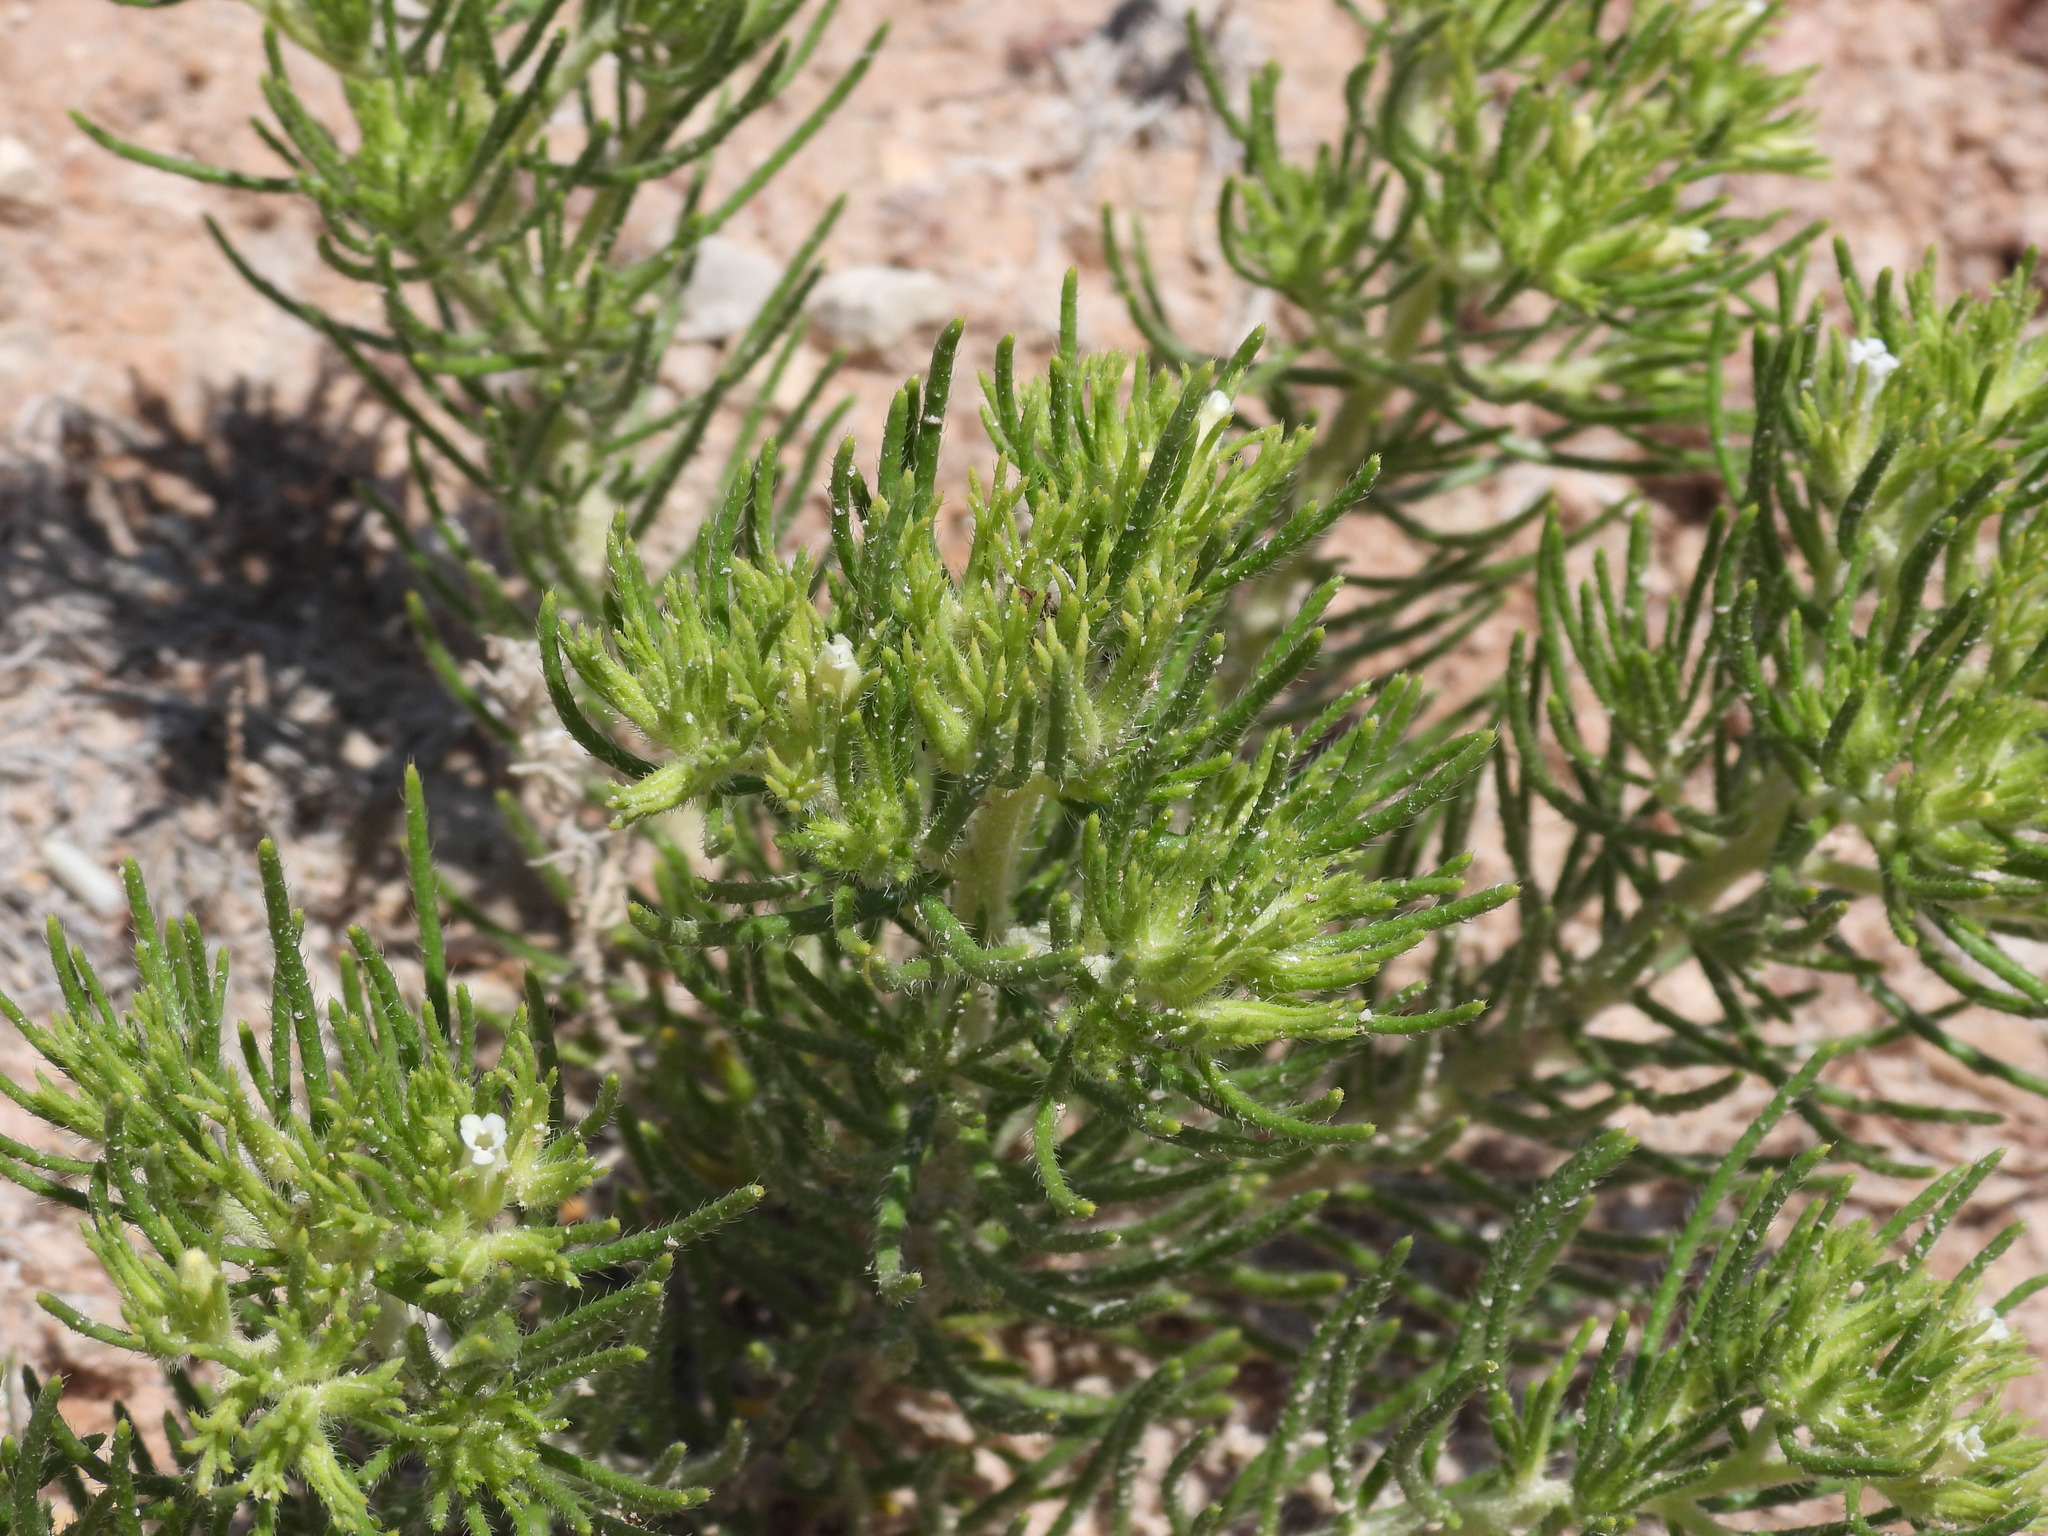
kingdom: Plantae
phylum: Tracheophyta
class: Magnoliopsida
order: Boraginales
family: Namaceae
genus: Andropus
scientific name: Andropus carnosus
